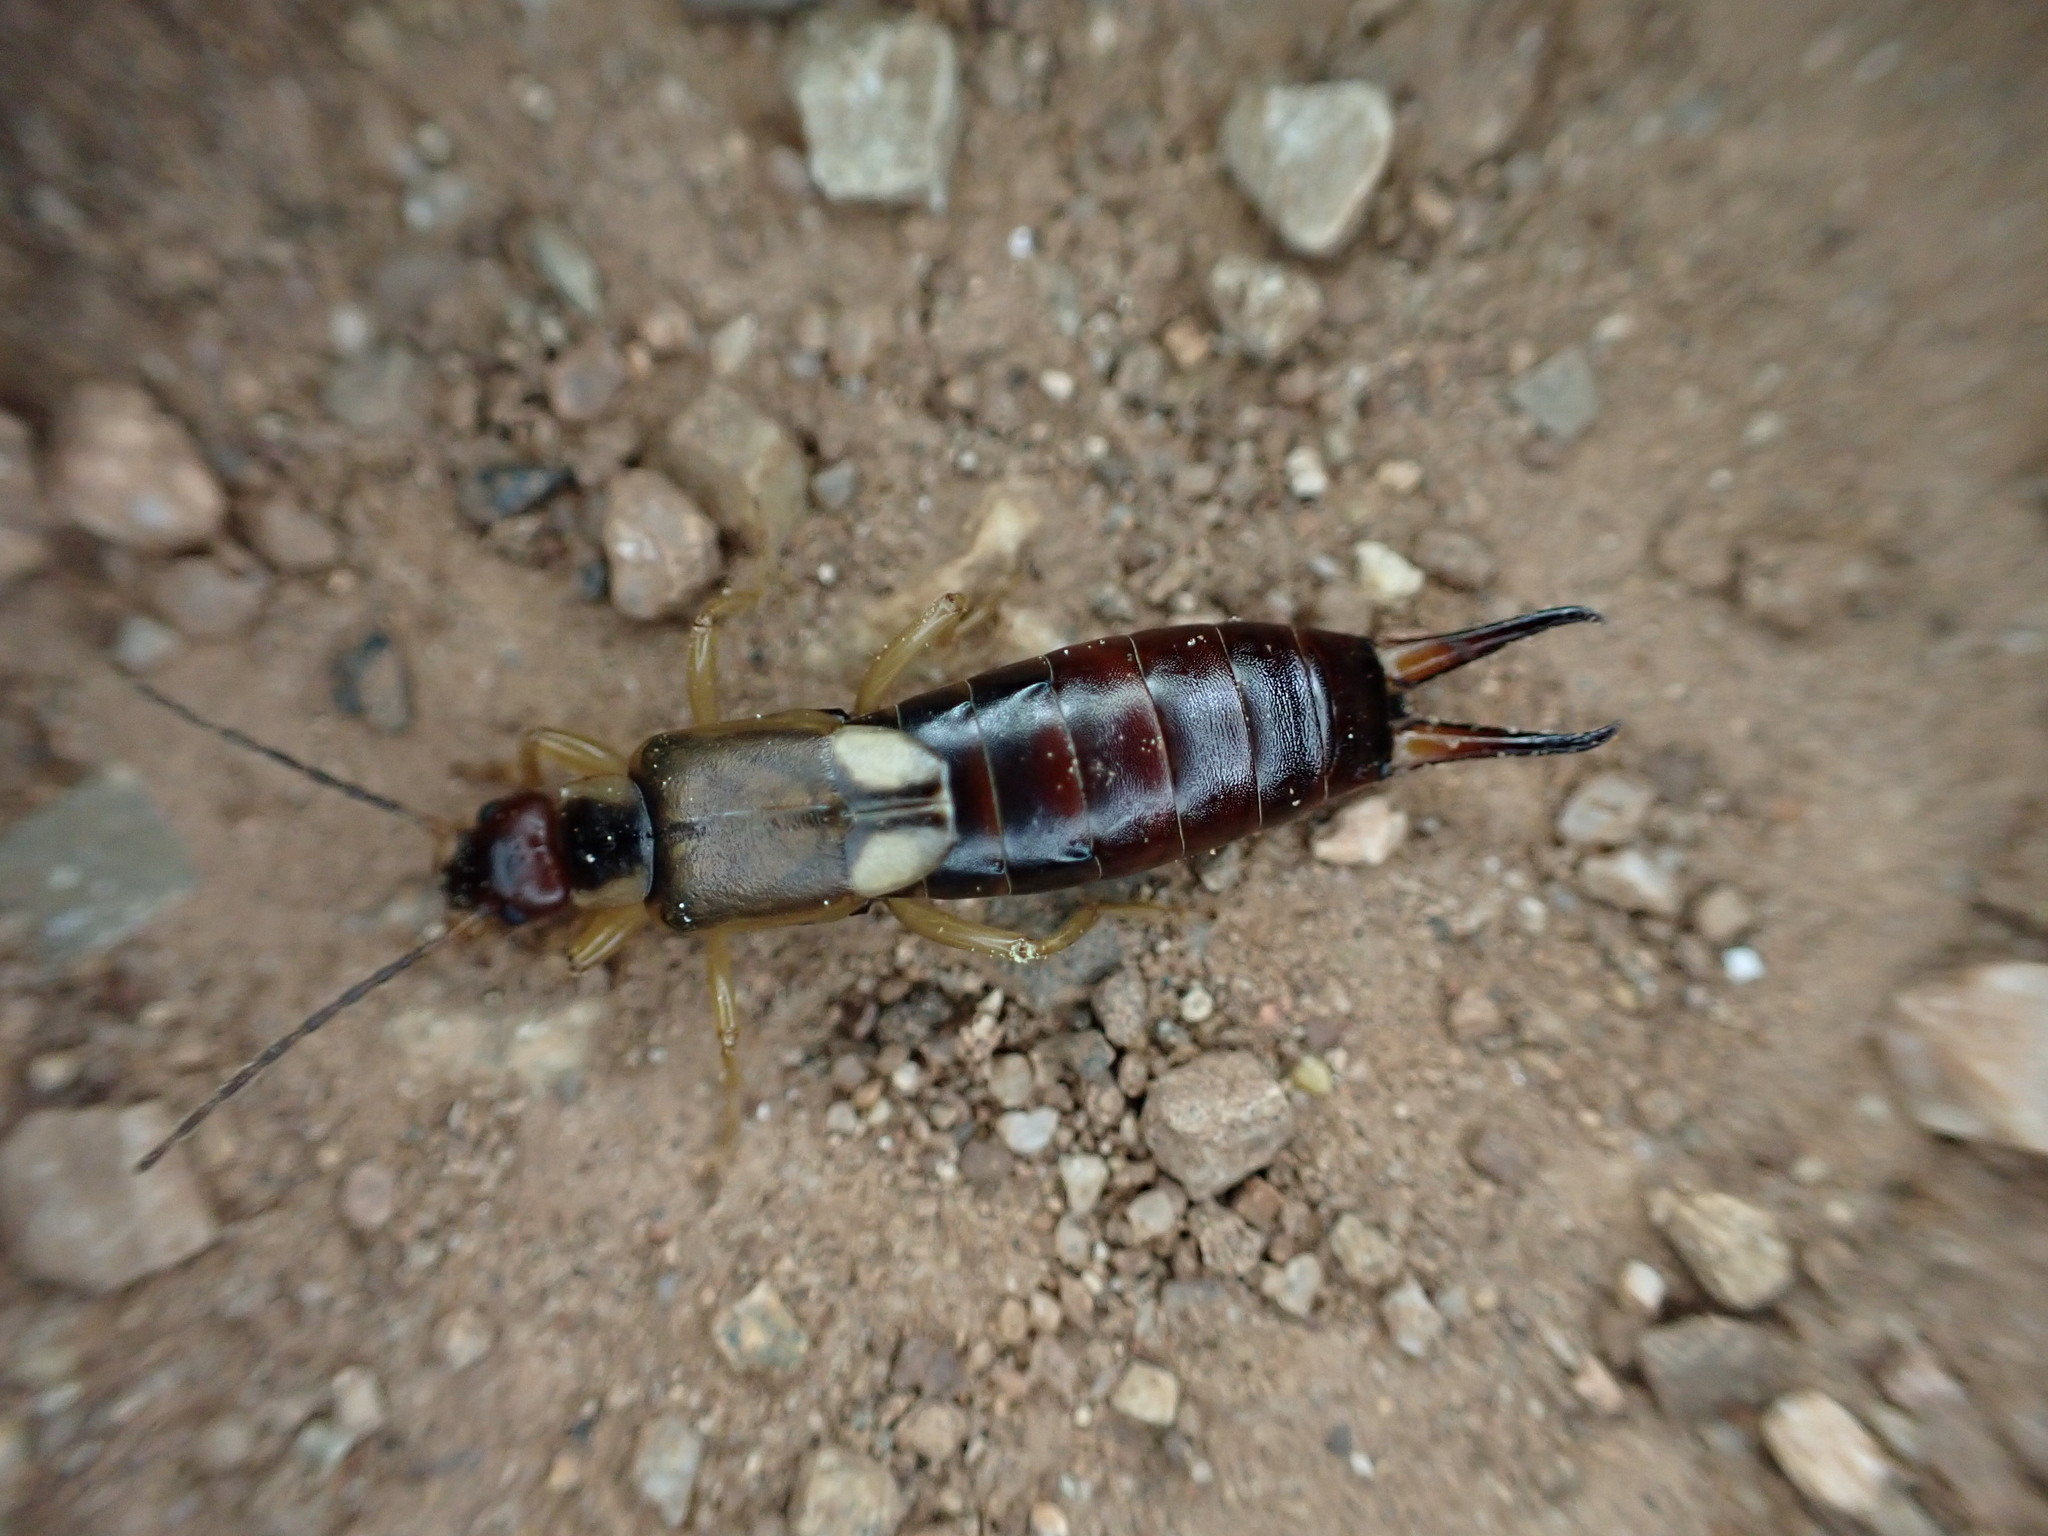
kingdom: Animalia
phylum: Arthropoda
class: Insecta
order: Dermaptera
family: Forficulidae
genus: Forficula
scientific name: Forficula
